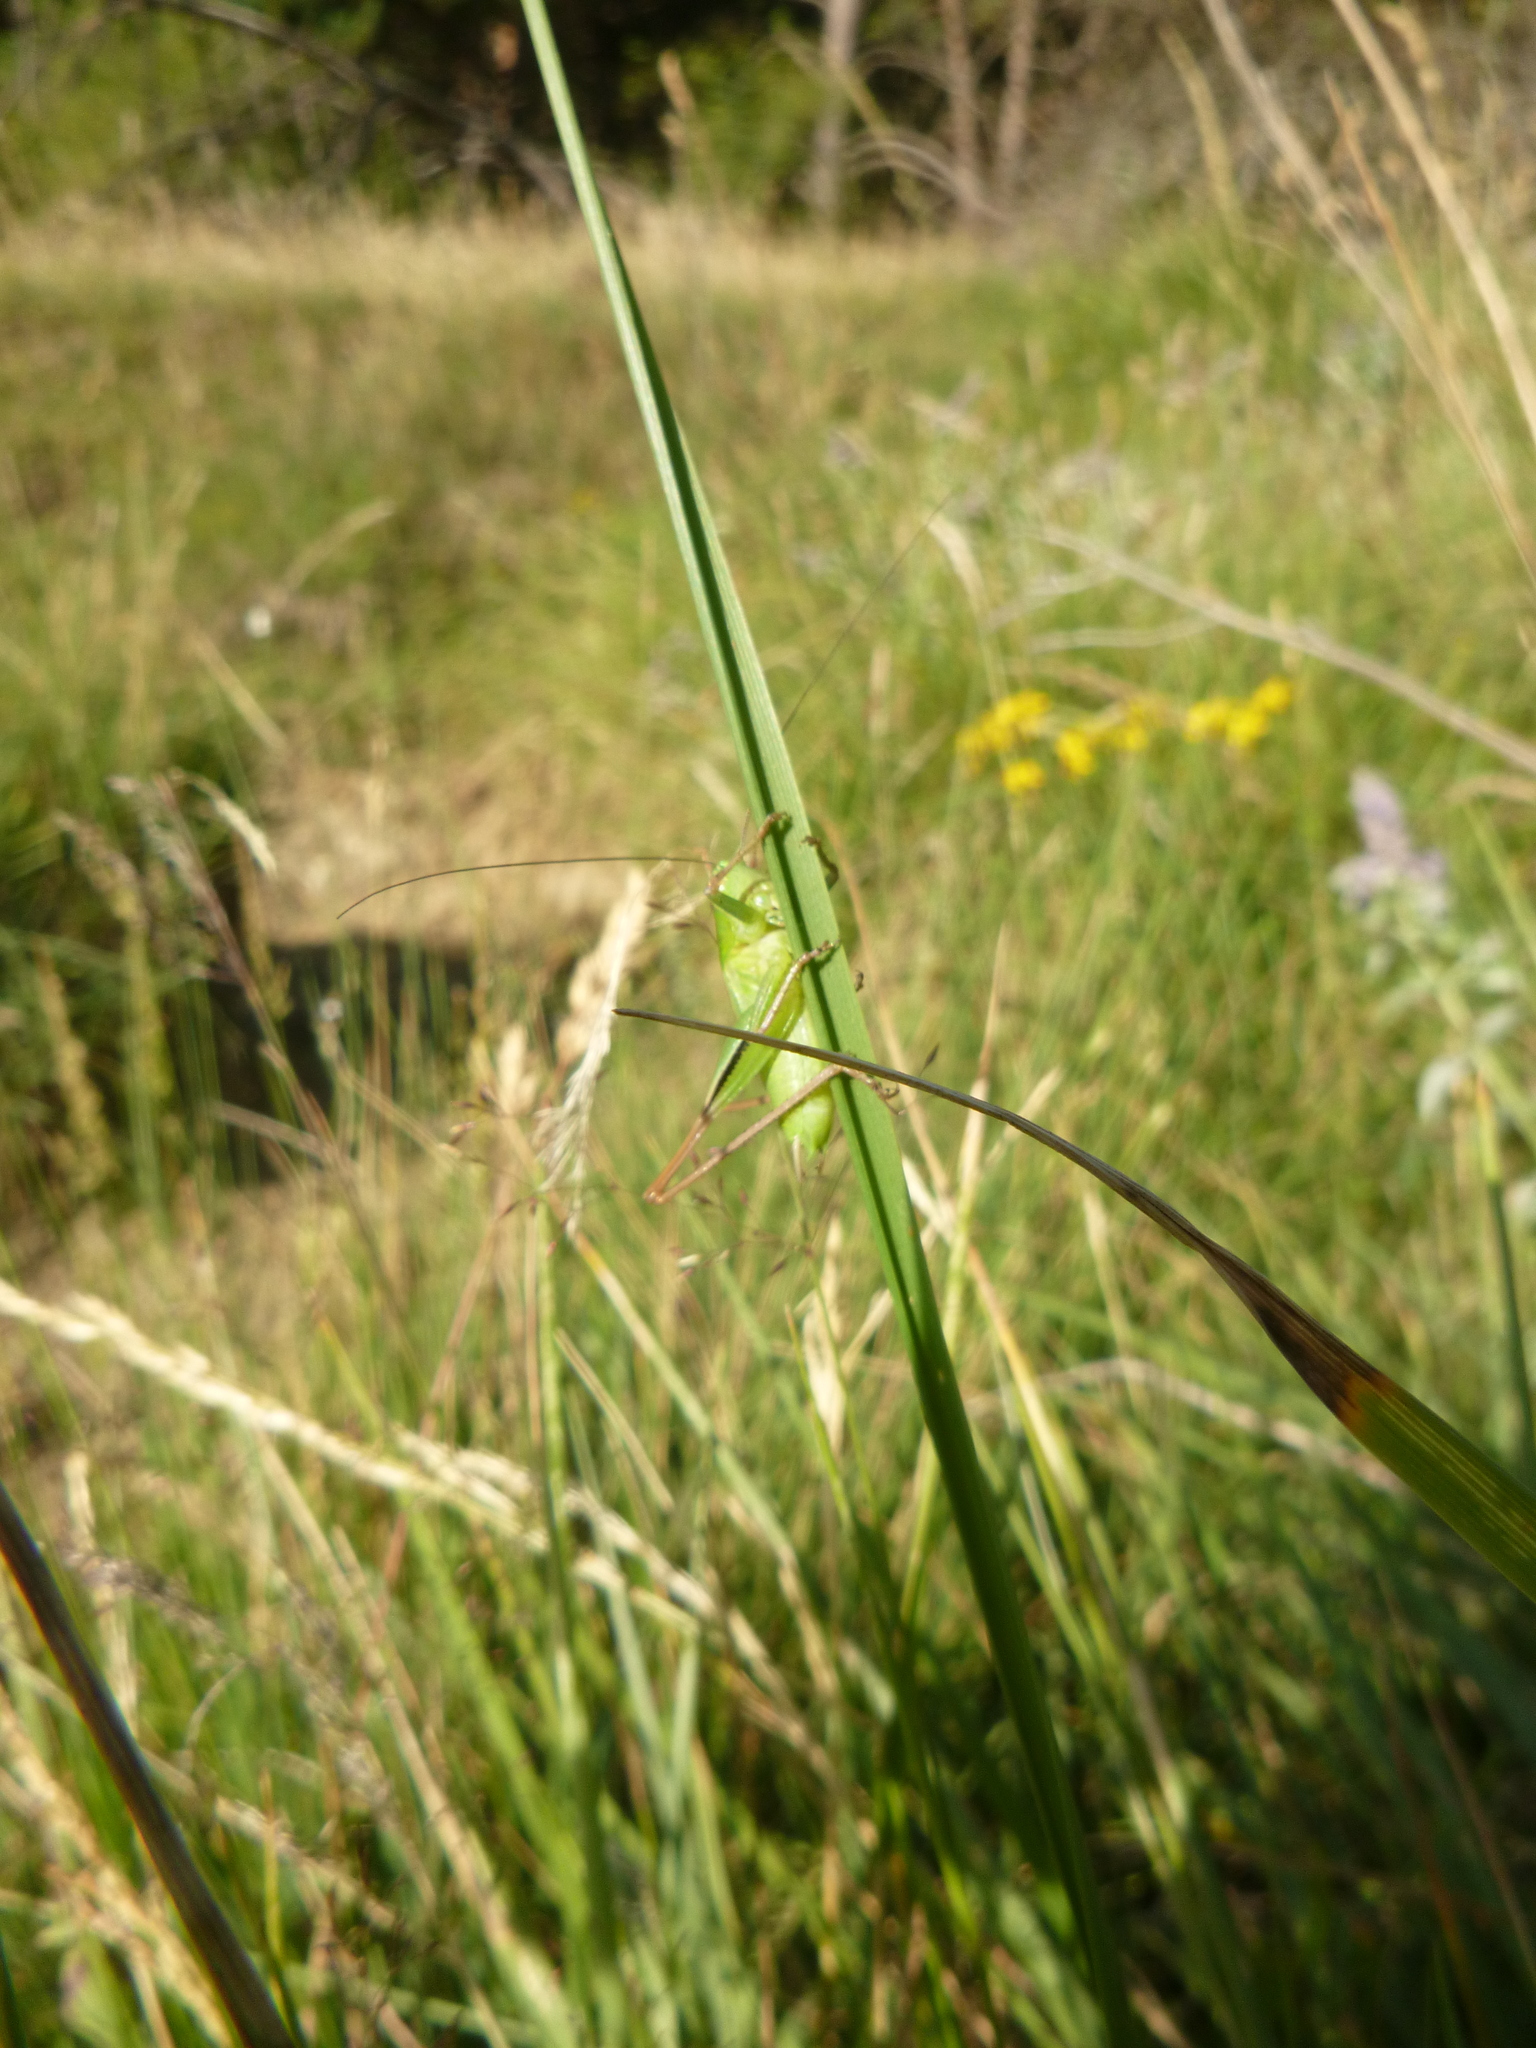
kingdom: Animalia
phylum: Arthropoda
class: Insecta
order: Orthoptera
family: Tettigoniidae
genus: Bicolorana
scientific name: Bicolorana bicolor
